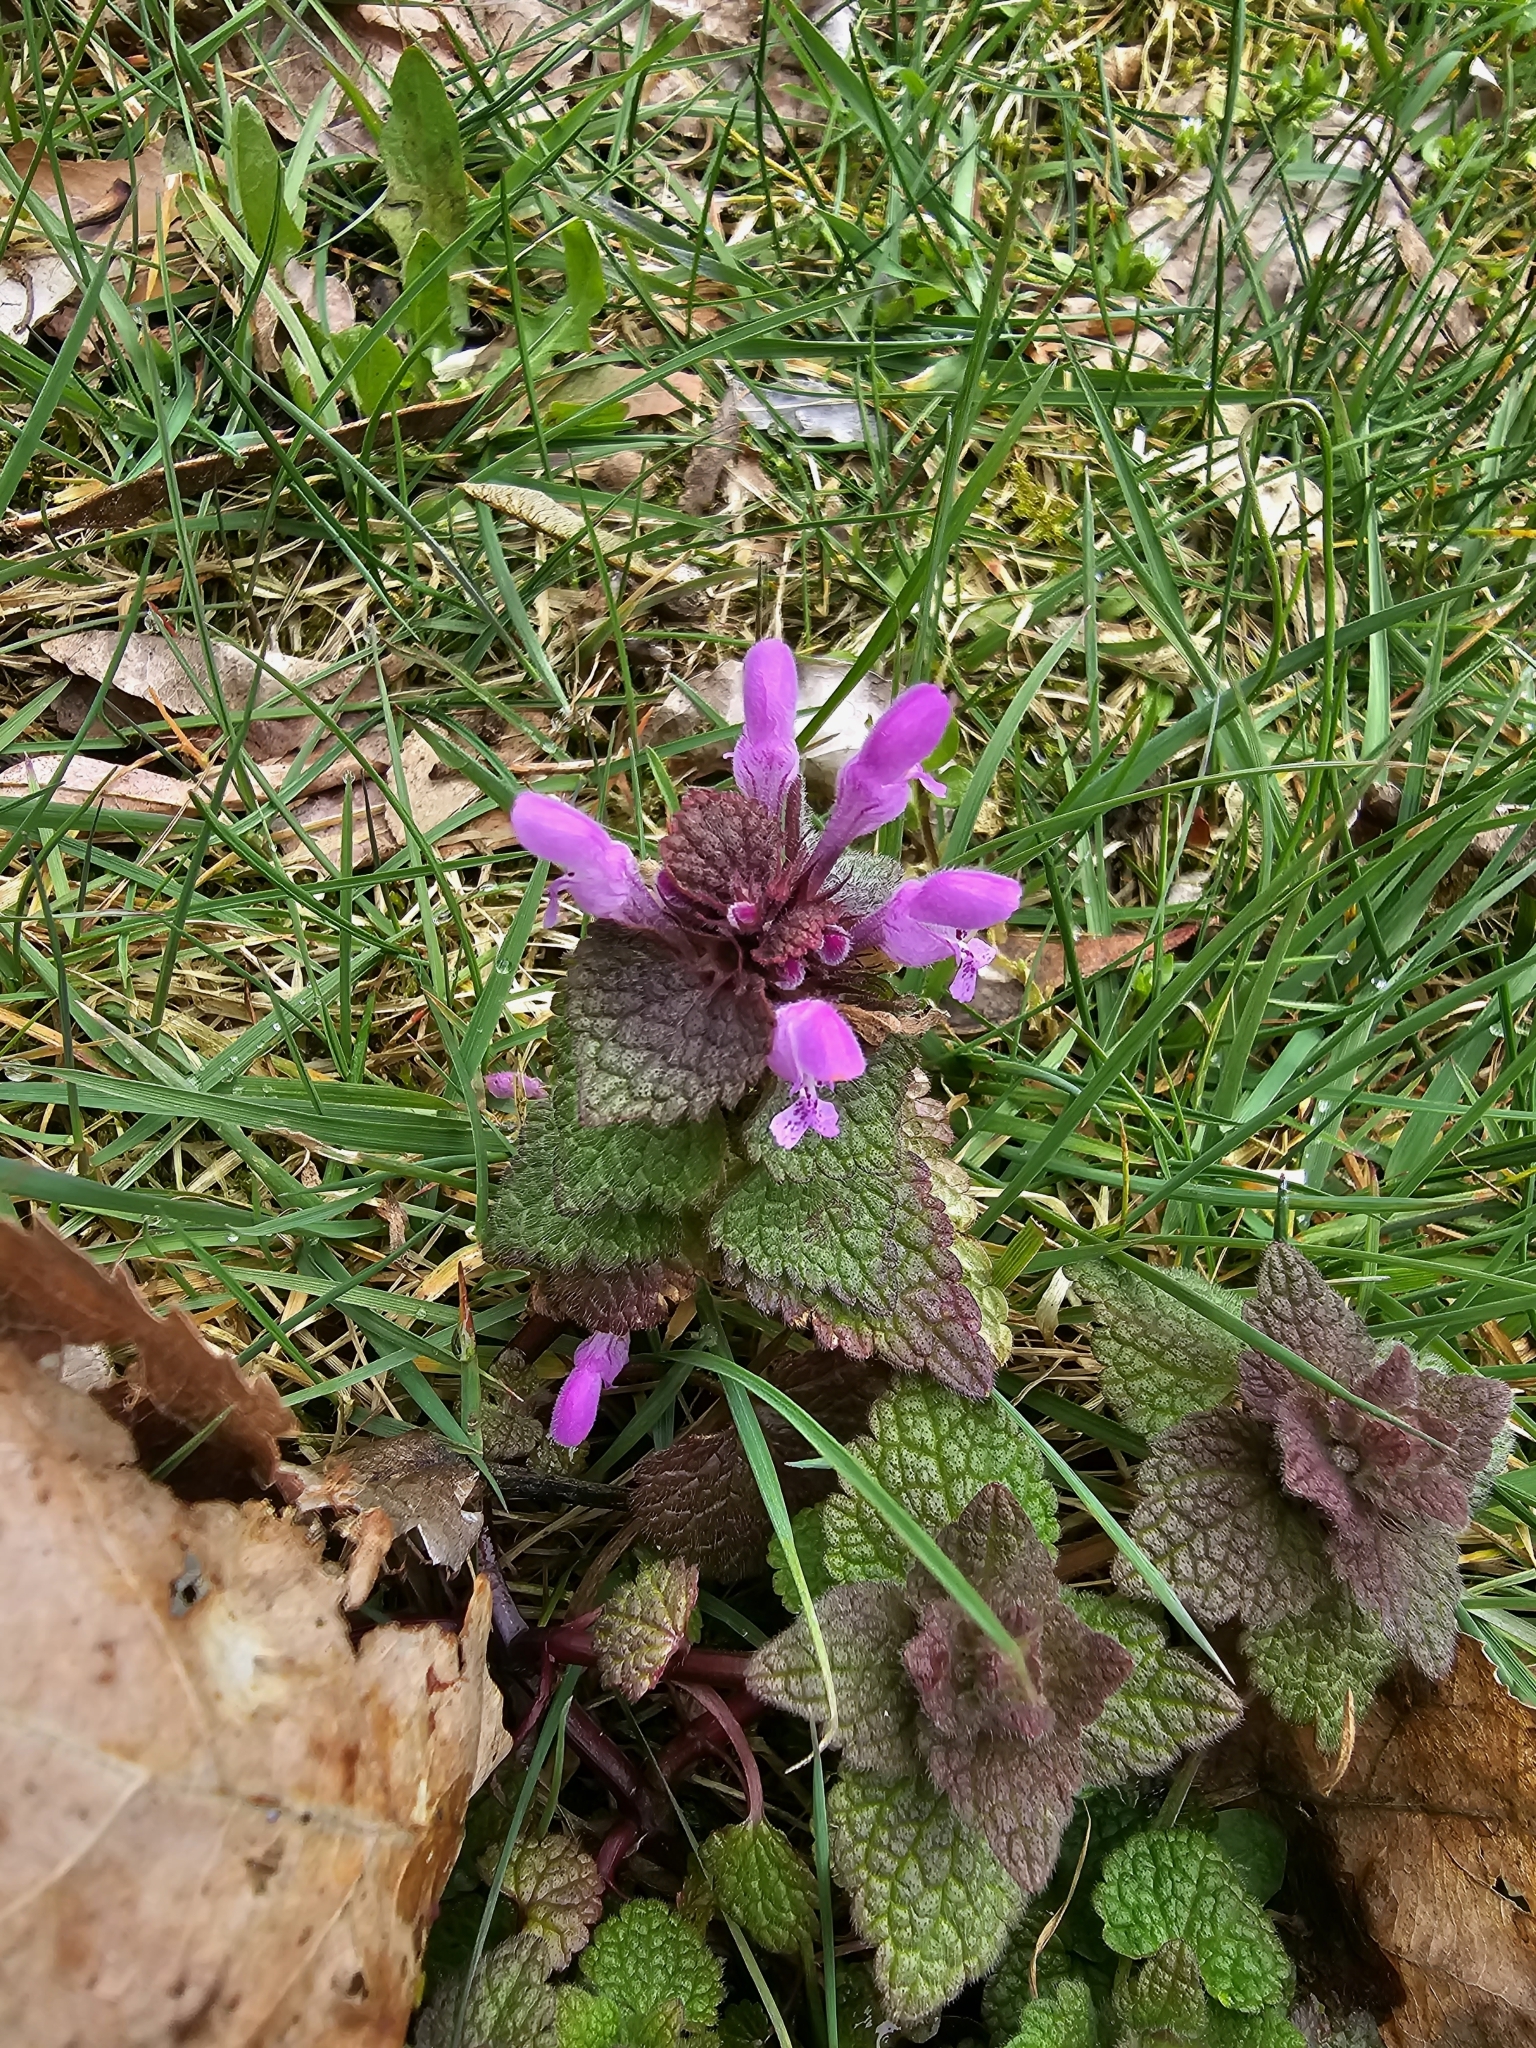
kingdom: Plantae
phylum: Tracheophyta
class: Magnoliopsida
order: Lamiales
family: Lamiaceae
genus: Lamium
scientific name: Lamium purpureum
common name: Red dead-nettle
